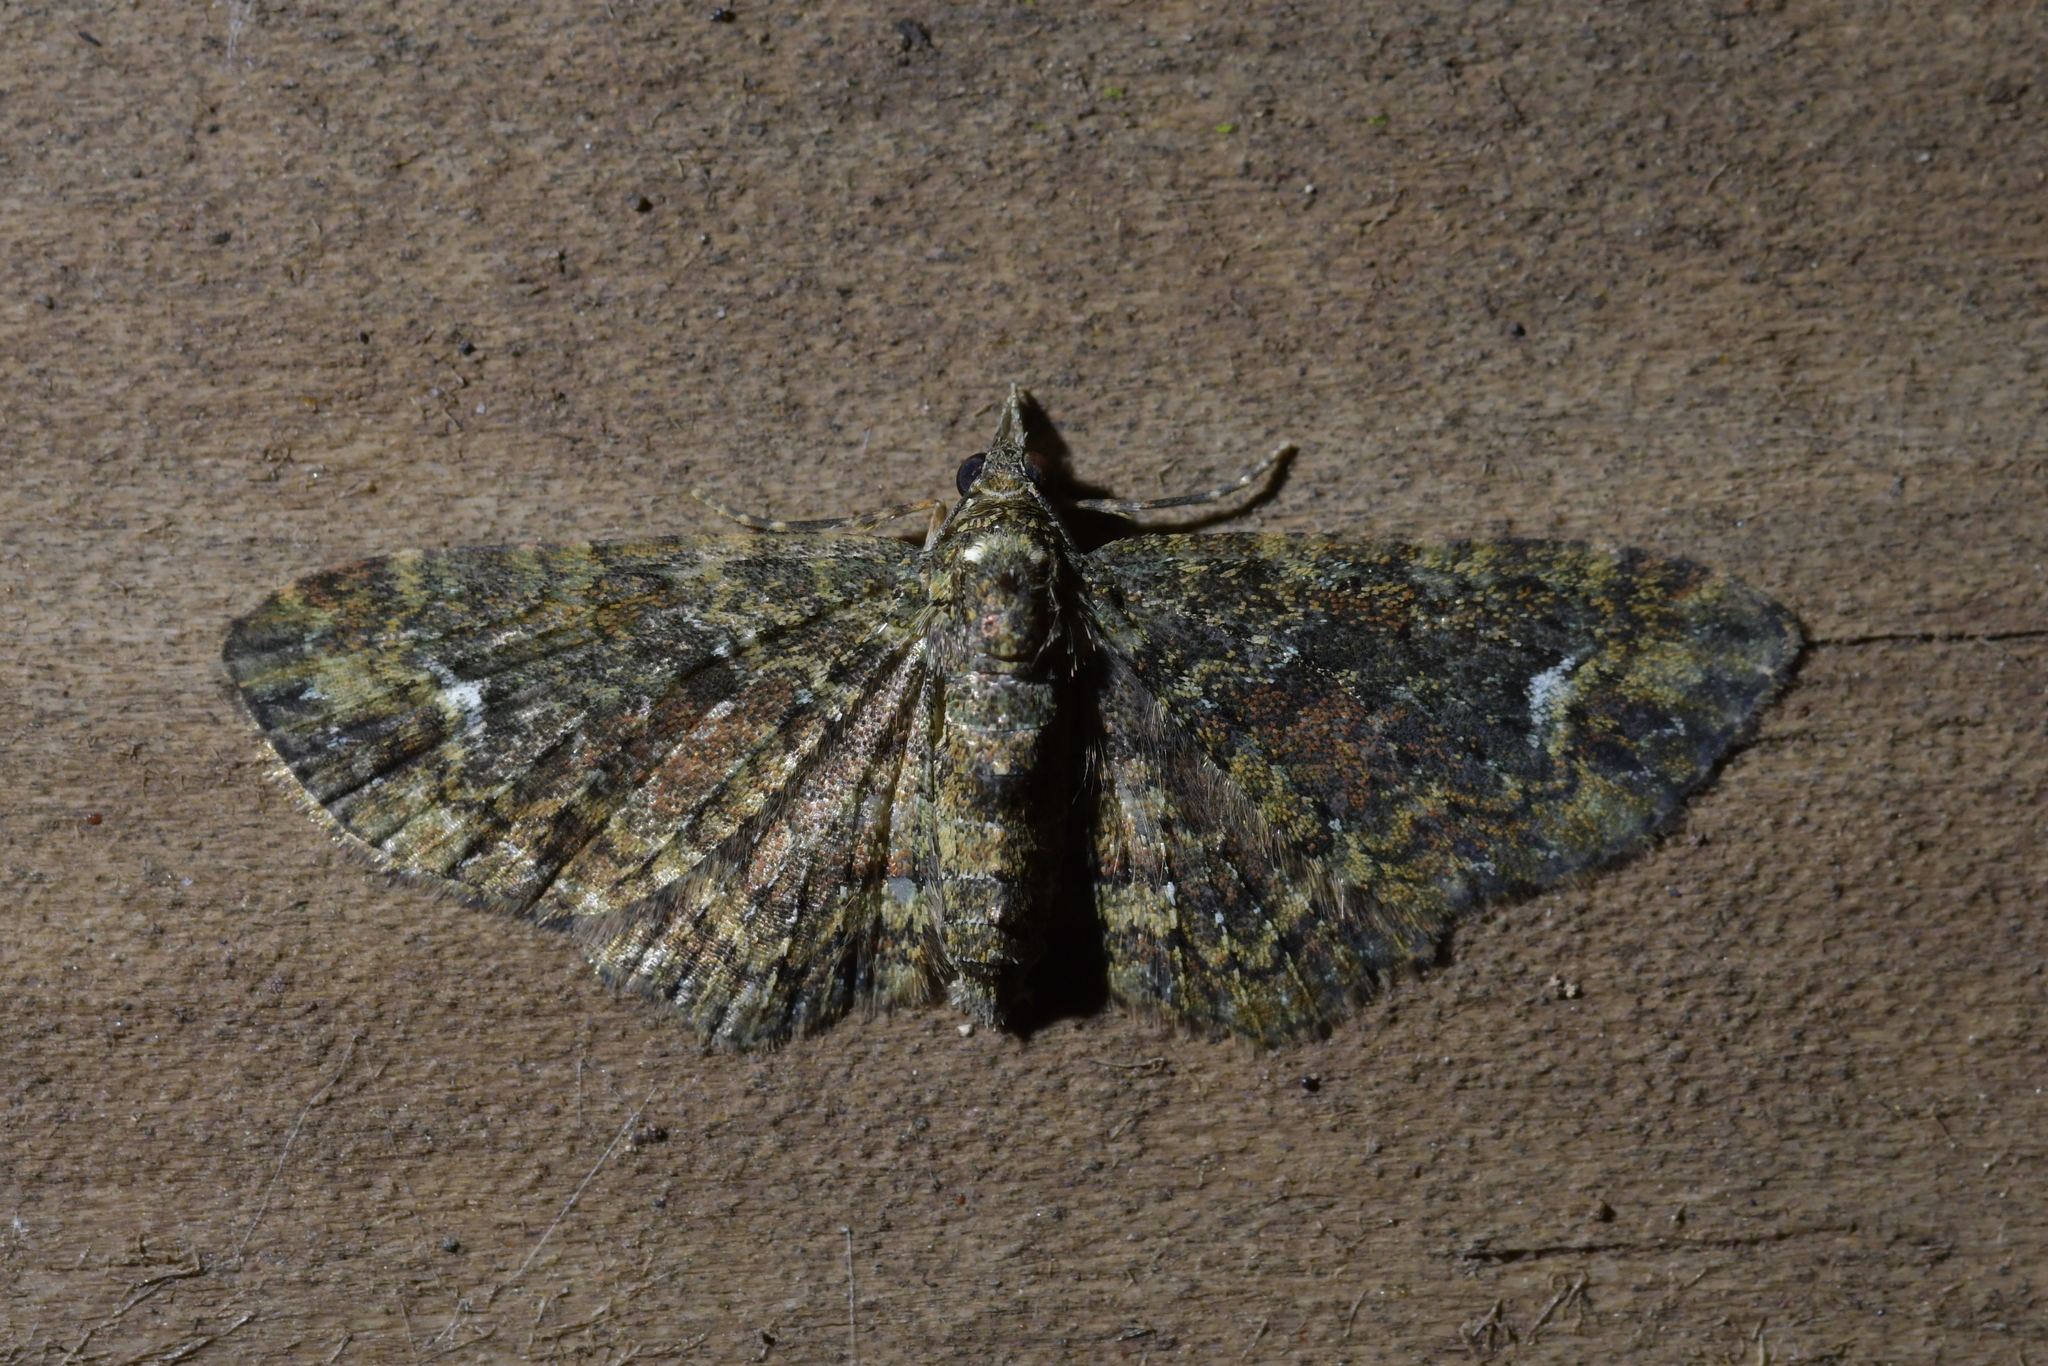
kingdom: Animalia
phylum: Arthropoda
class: Insecta
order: Lepidoptera
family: Geometridae
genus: Pasiphilodes
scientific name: Pasiphilodes testulata
